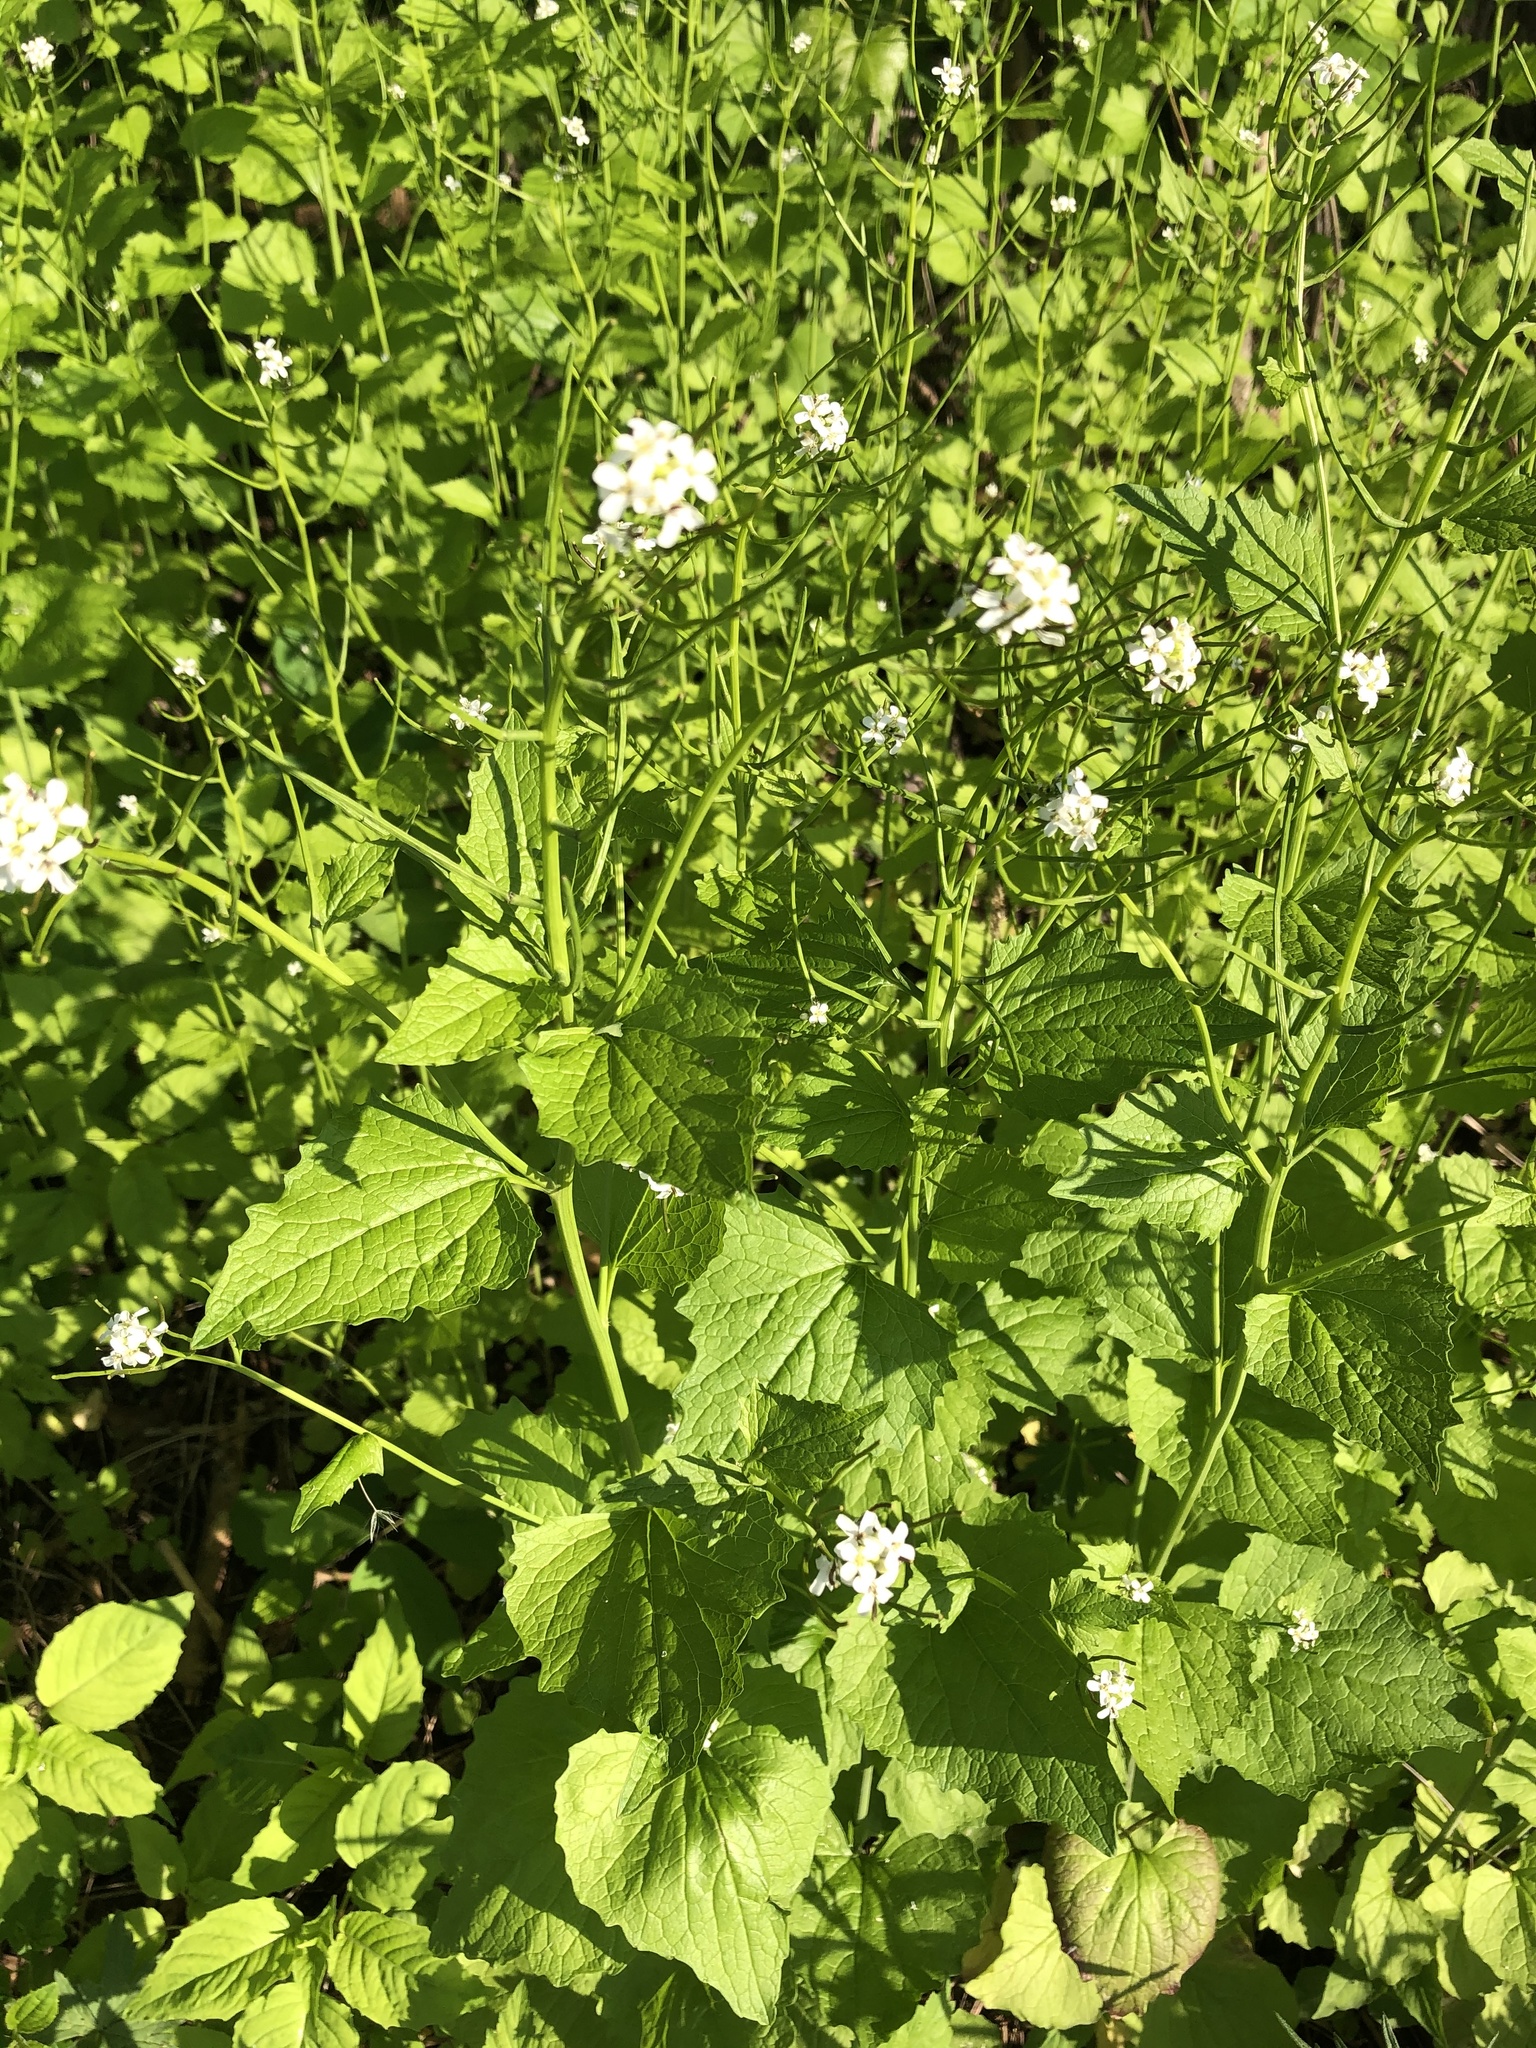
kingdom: Plantae
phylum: Tracheophyta
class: Magnoliopsida
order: Brassicales
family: Brassicaceae
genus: Alliaria
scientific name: Alliaria petiolata
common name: Garlic mustard
